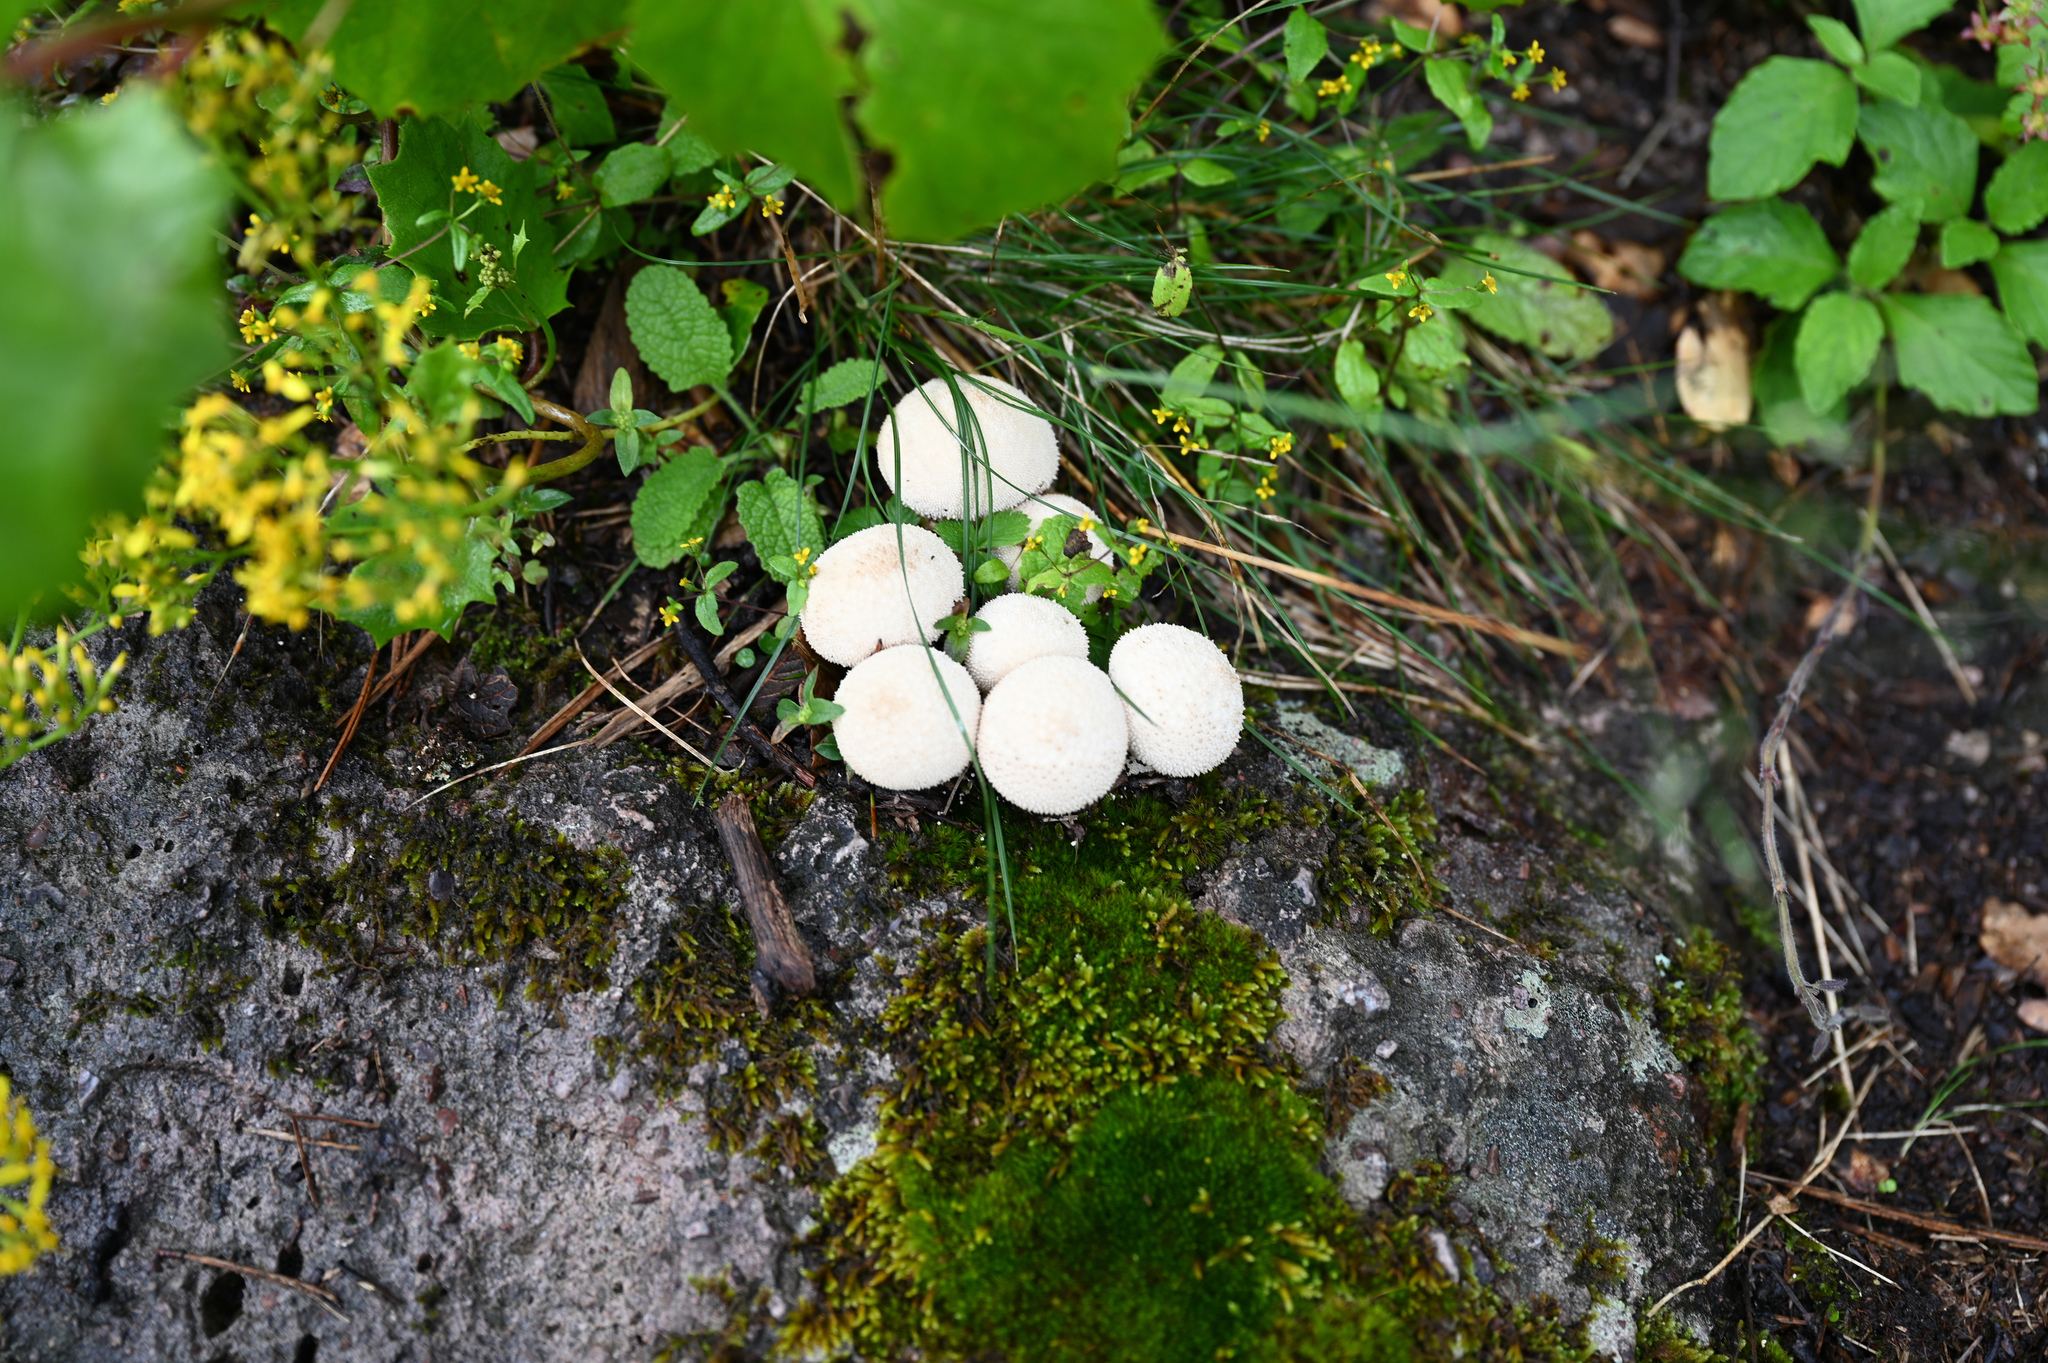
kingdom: Fungi
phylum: Basidiomycota
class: Agaricomycetes
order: Agaricales
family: Lycoperdaceae
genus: Lycoperdon
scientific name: Lycoperdon perlatum
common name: Common puffball
